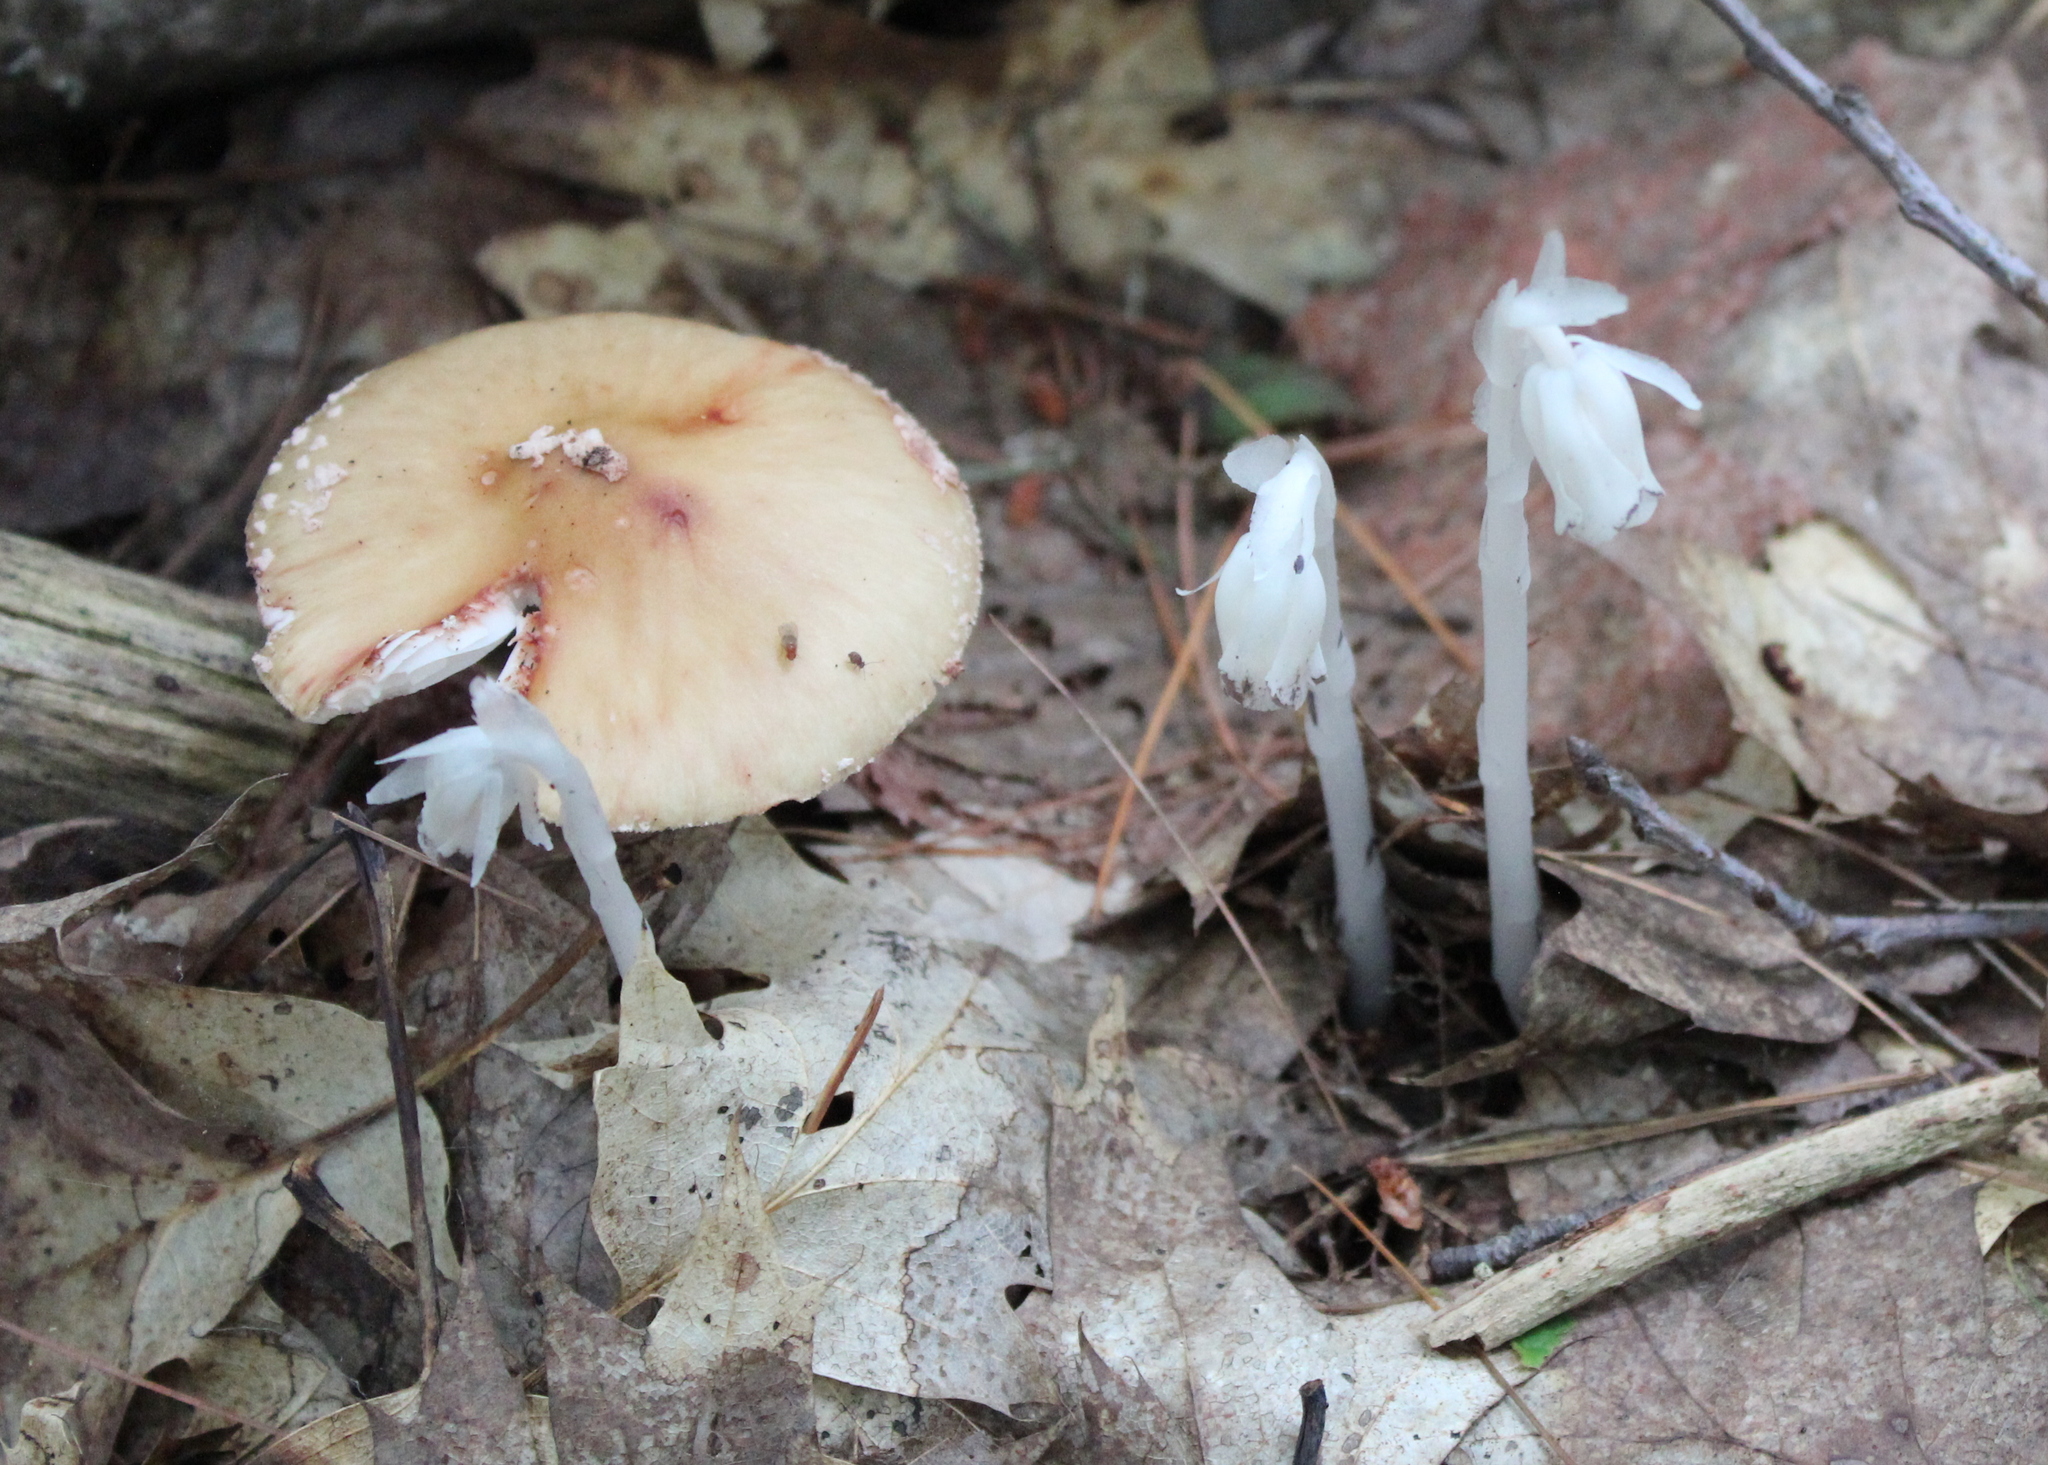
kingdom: Plantae
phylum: Tracheophyta
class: Magnoliopsida
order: Ericales
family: Ericaceae
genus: Monotropa
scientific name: Monotropa uniflora
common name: Convulsion root
